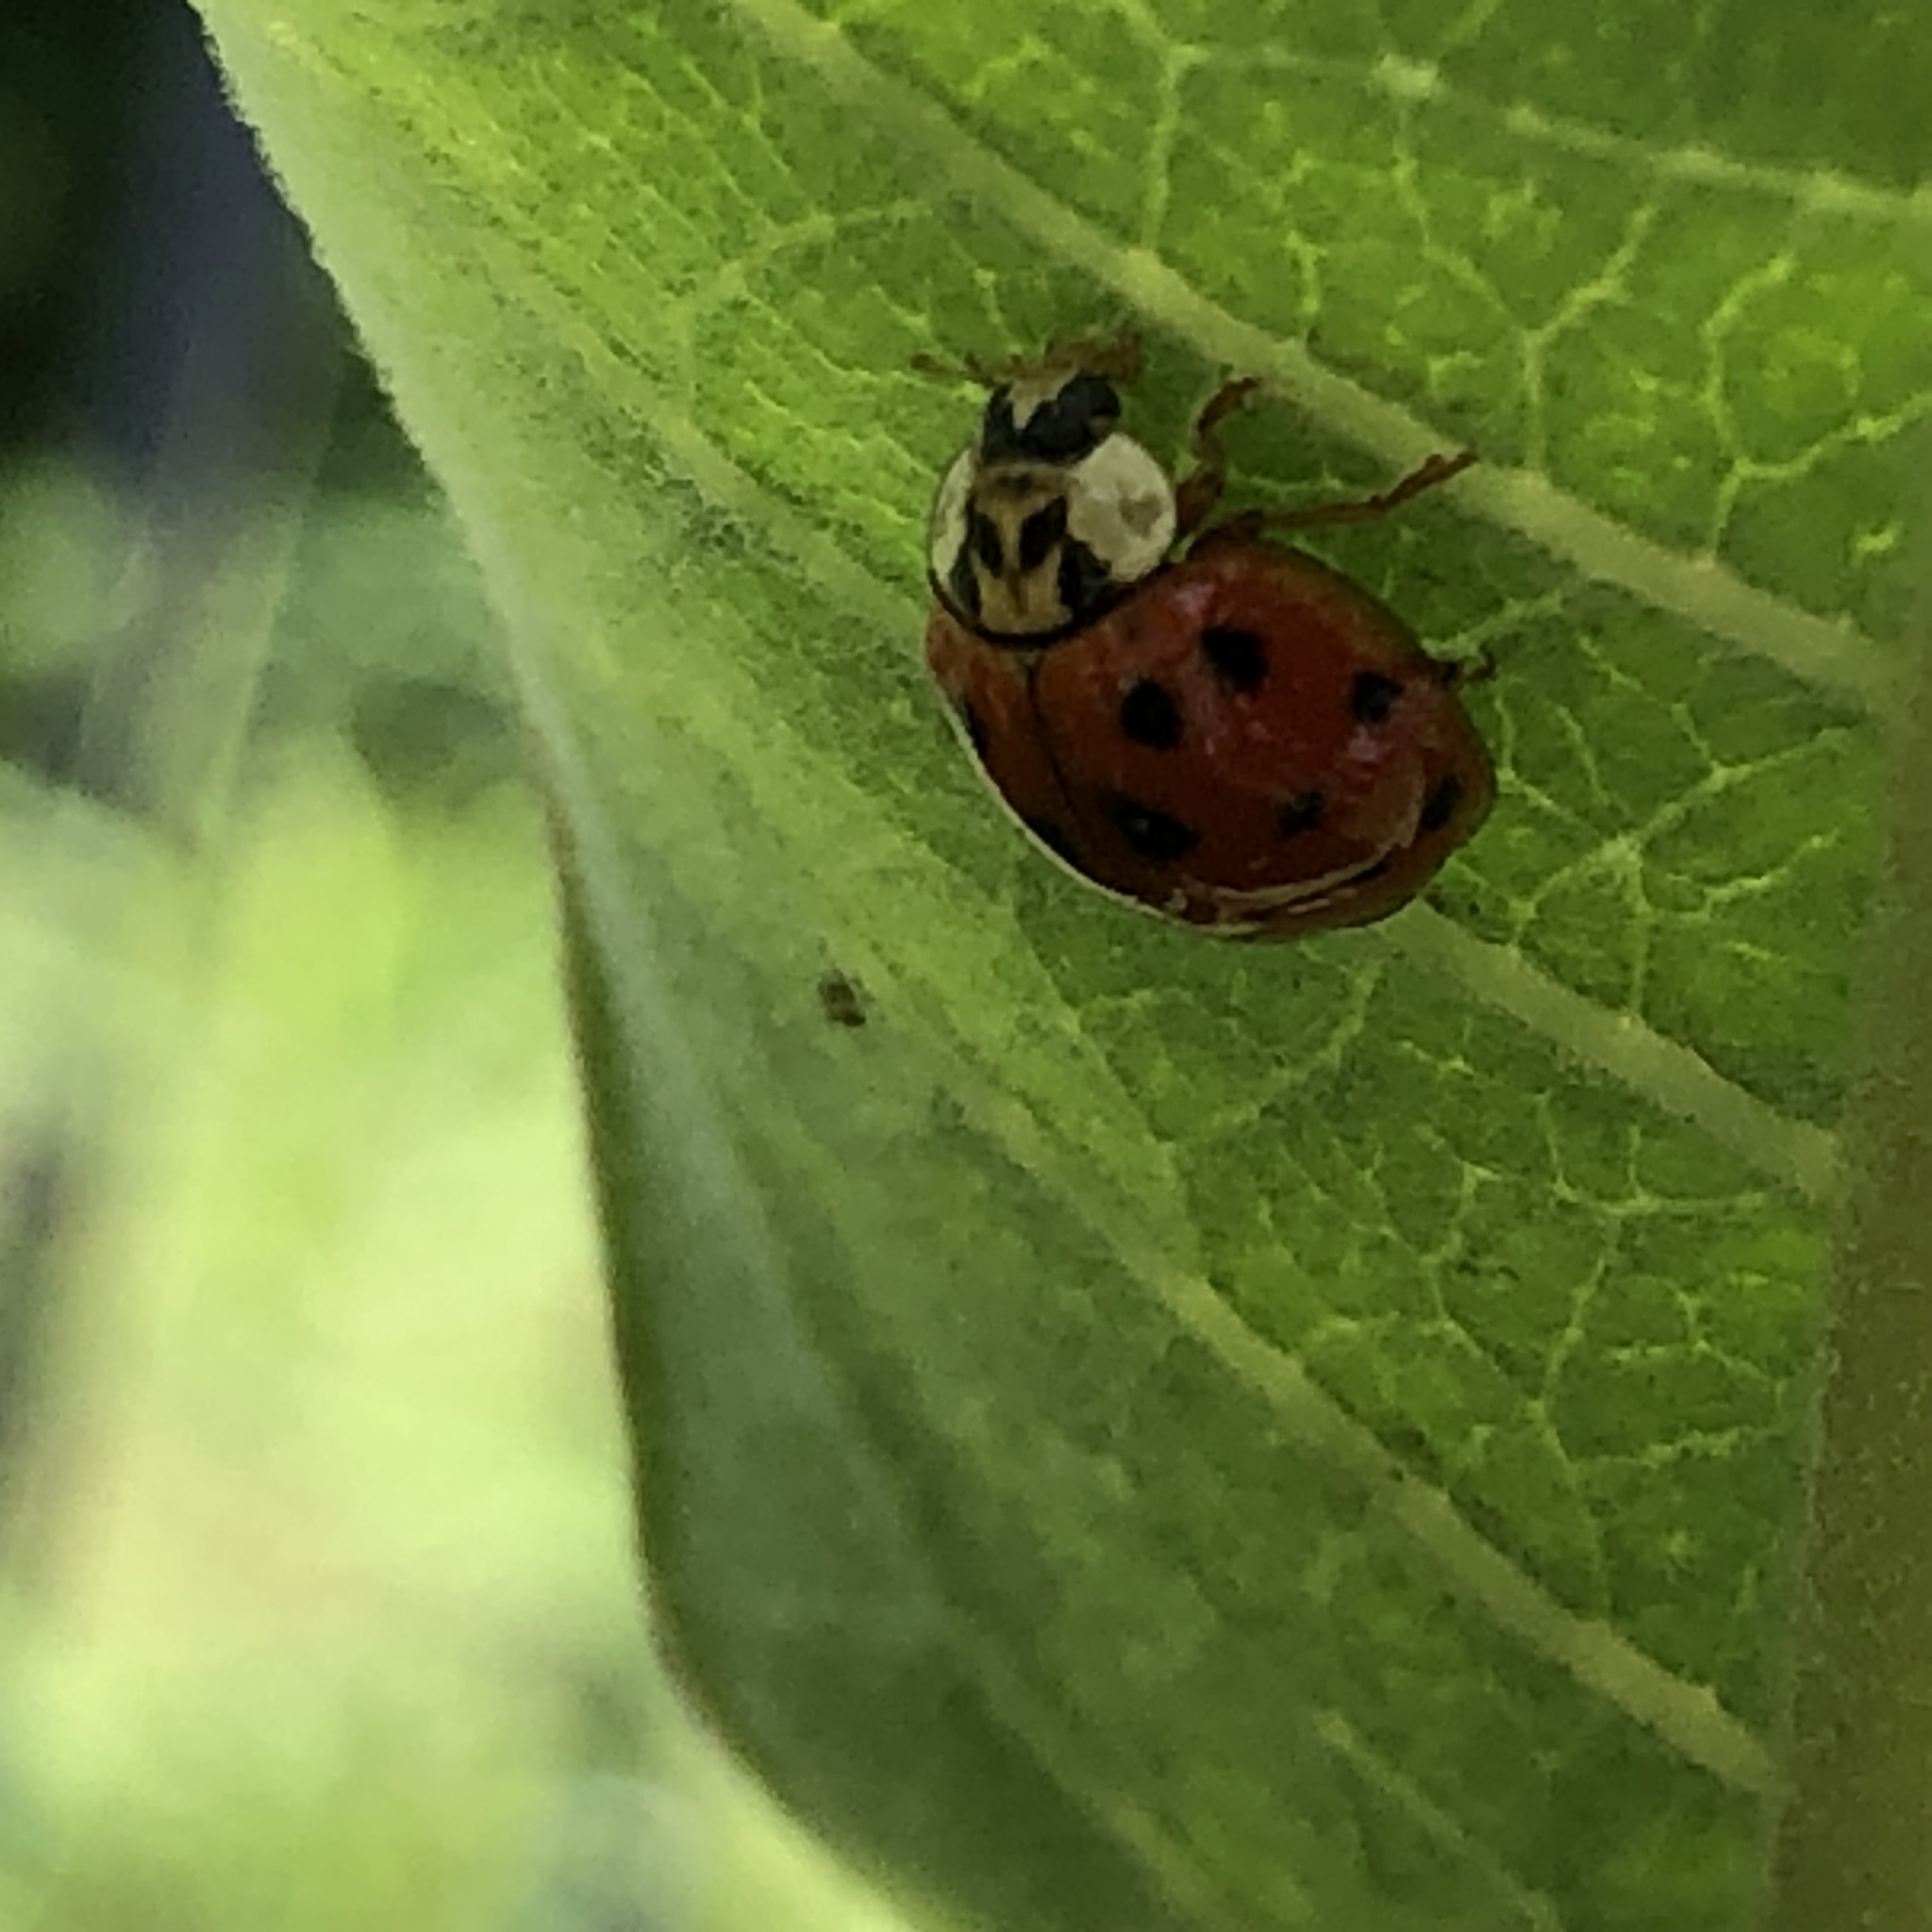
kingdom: Animalia
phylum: Arthropoda
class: Insecta
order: Coleoptera
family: Coccinellidae
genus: Harmonia
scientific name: Harmonia axyridis
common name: Harlequin ladybird
